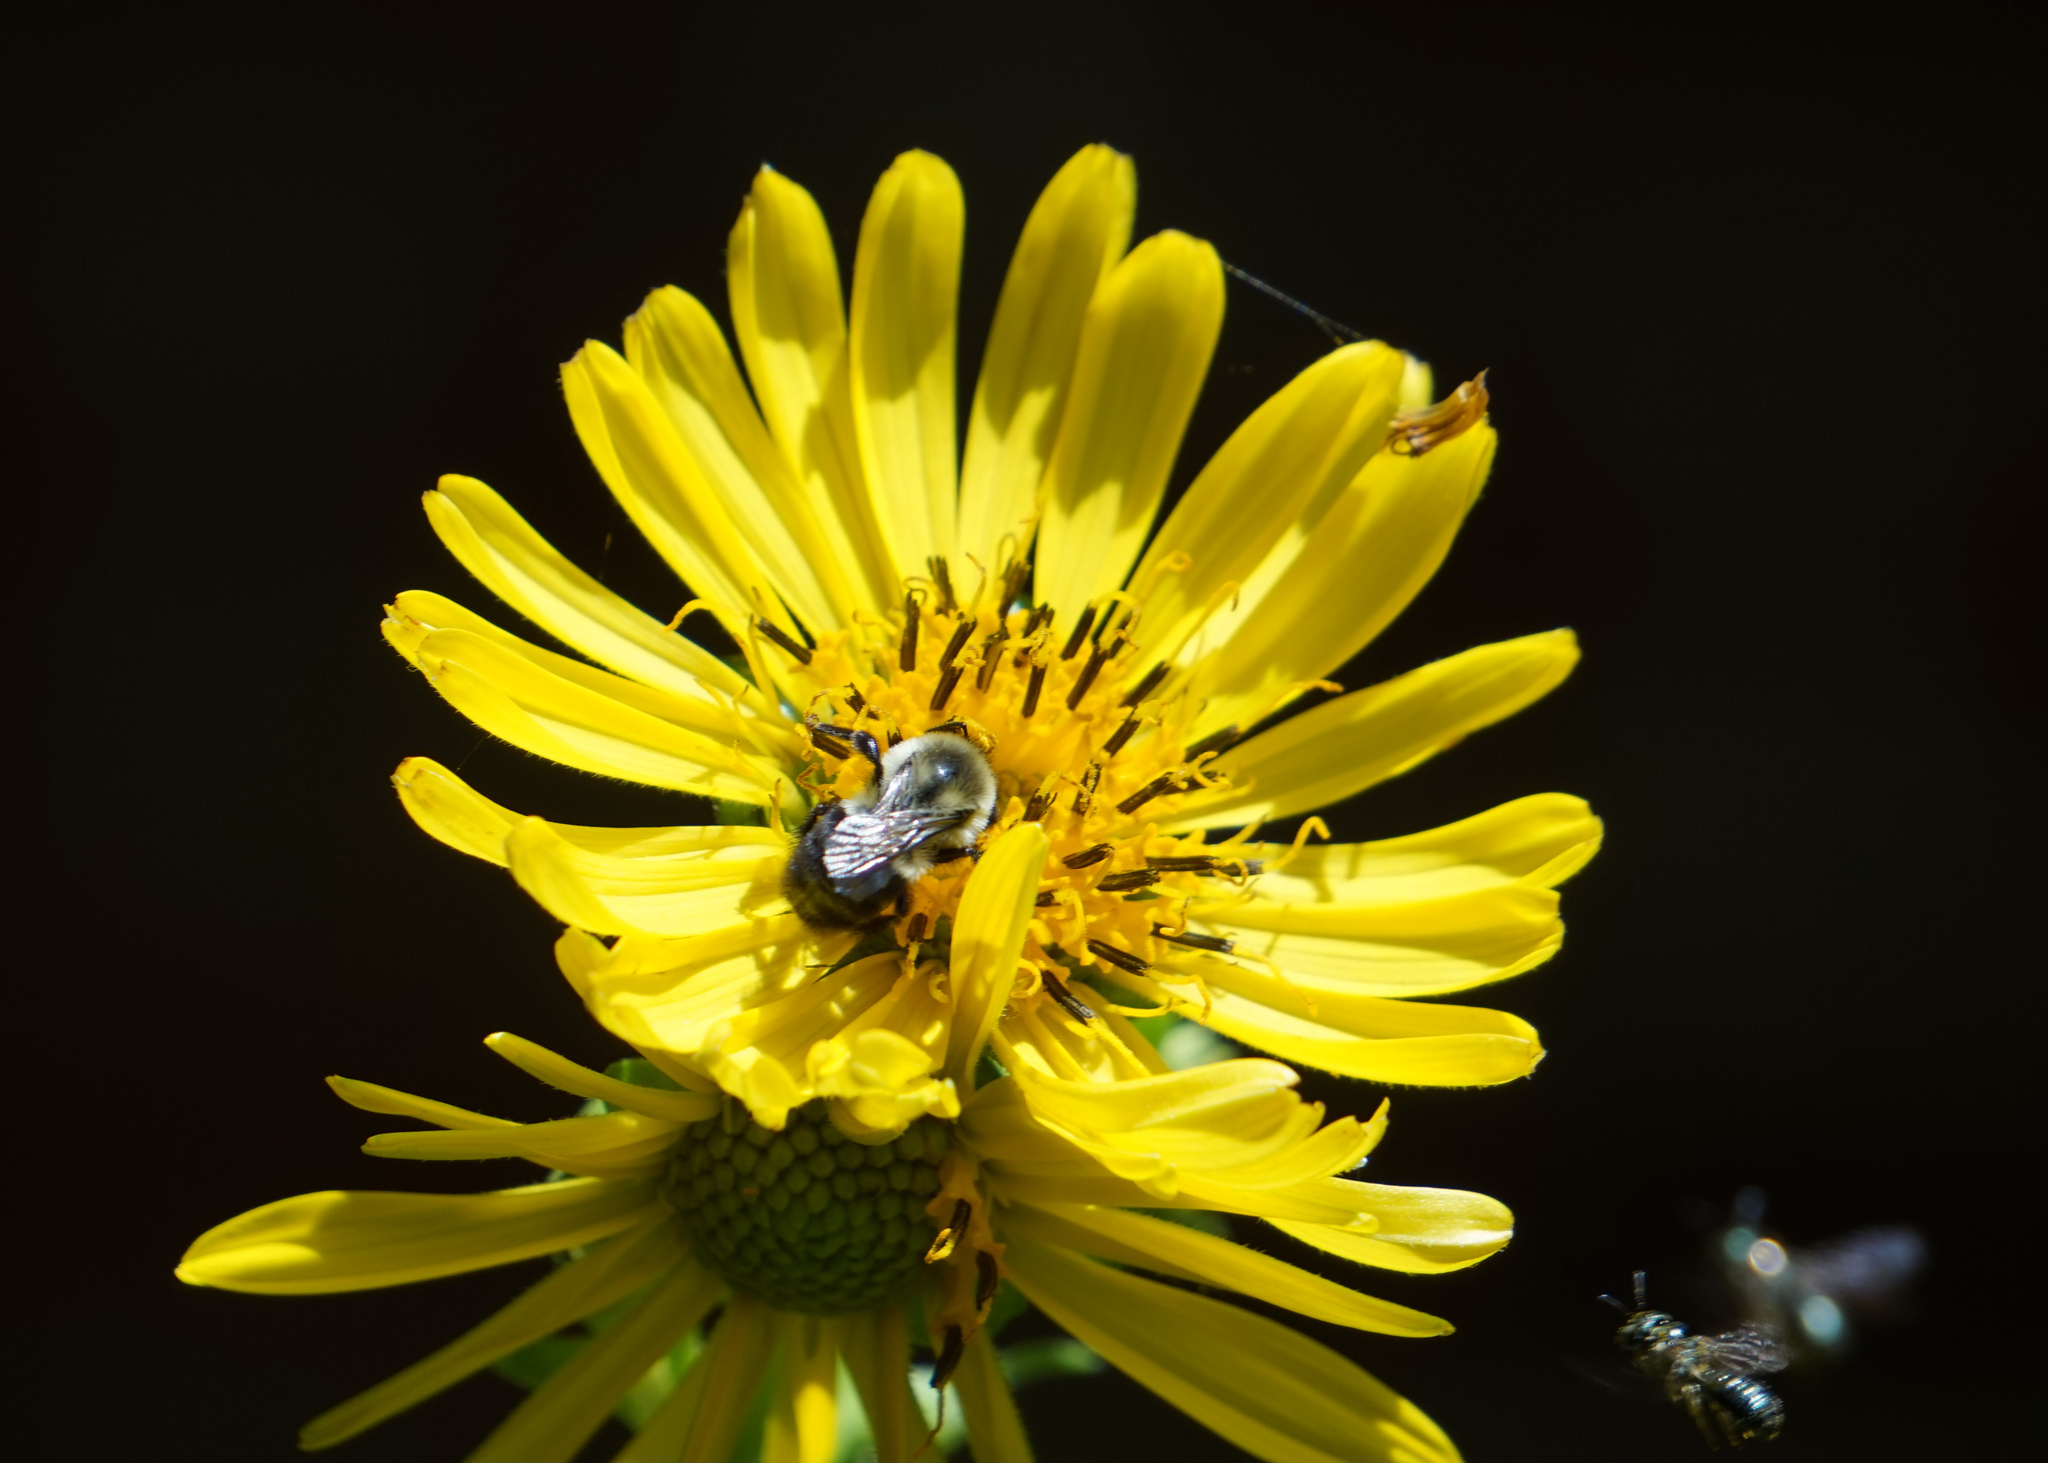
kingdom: Animalia
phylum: Arthropoda
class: Insecta
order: Hymenoptera
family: Apidae
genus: Bombus
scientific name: Bombus impatiens
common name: Common eastern bumble bee
